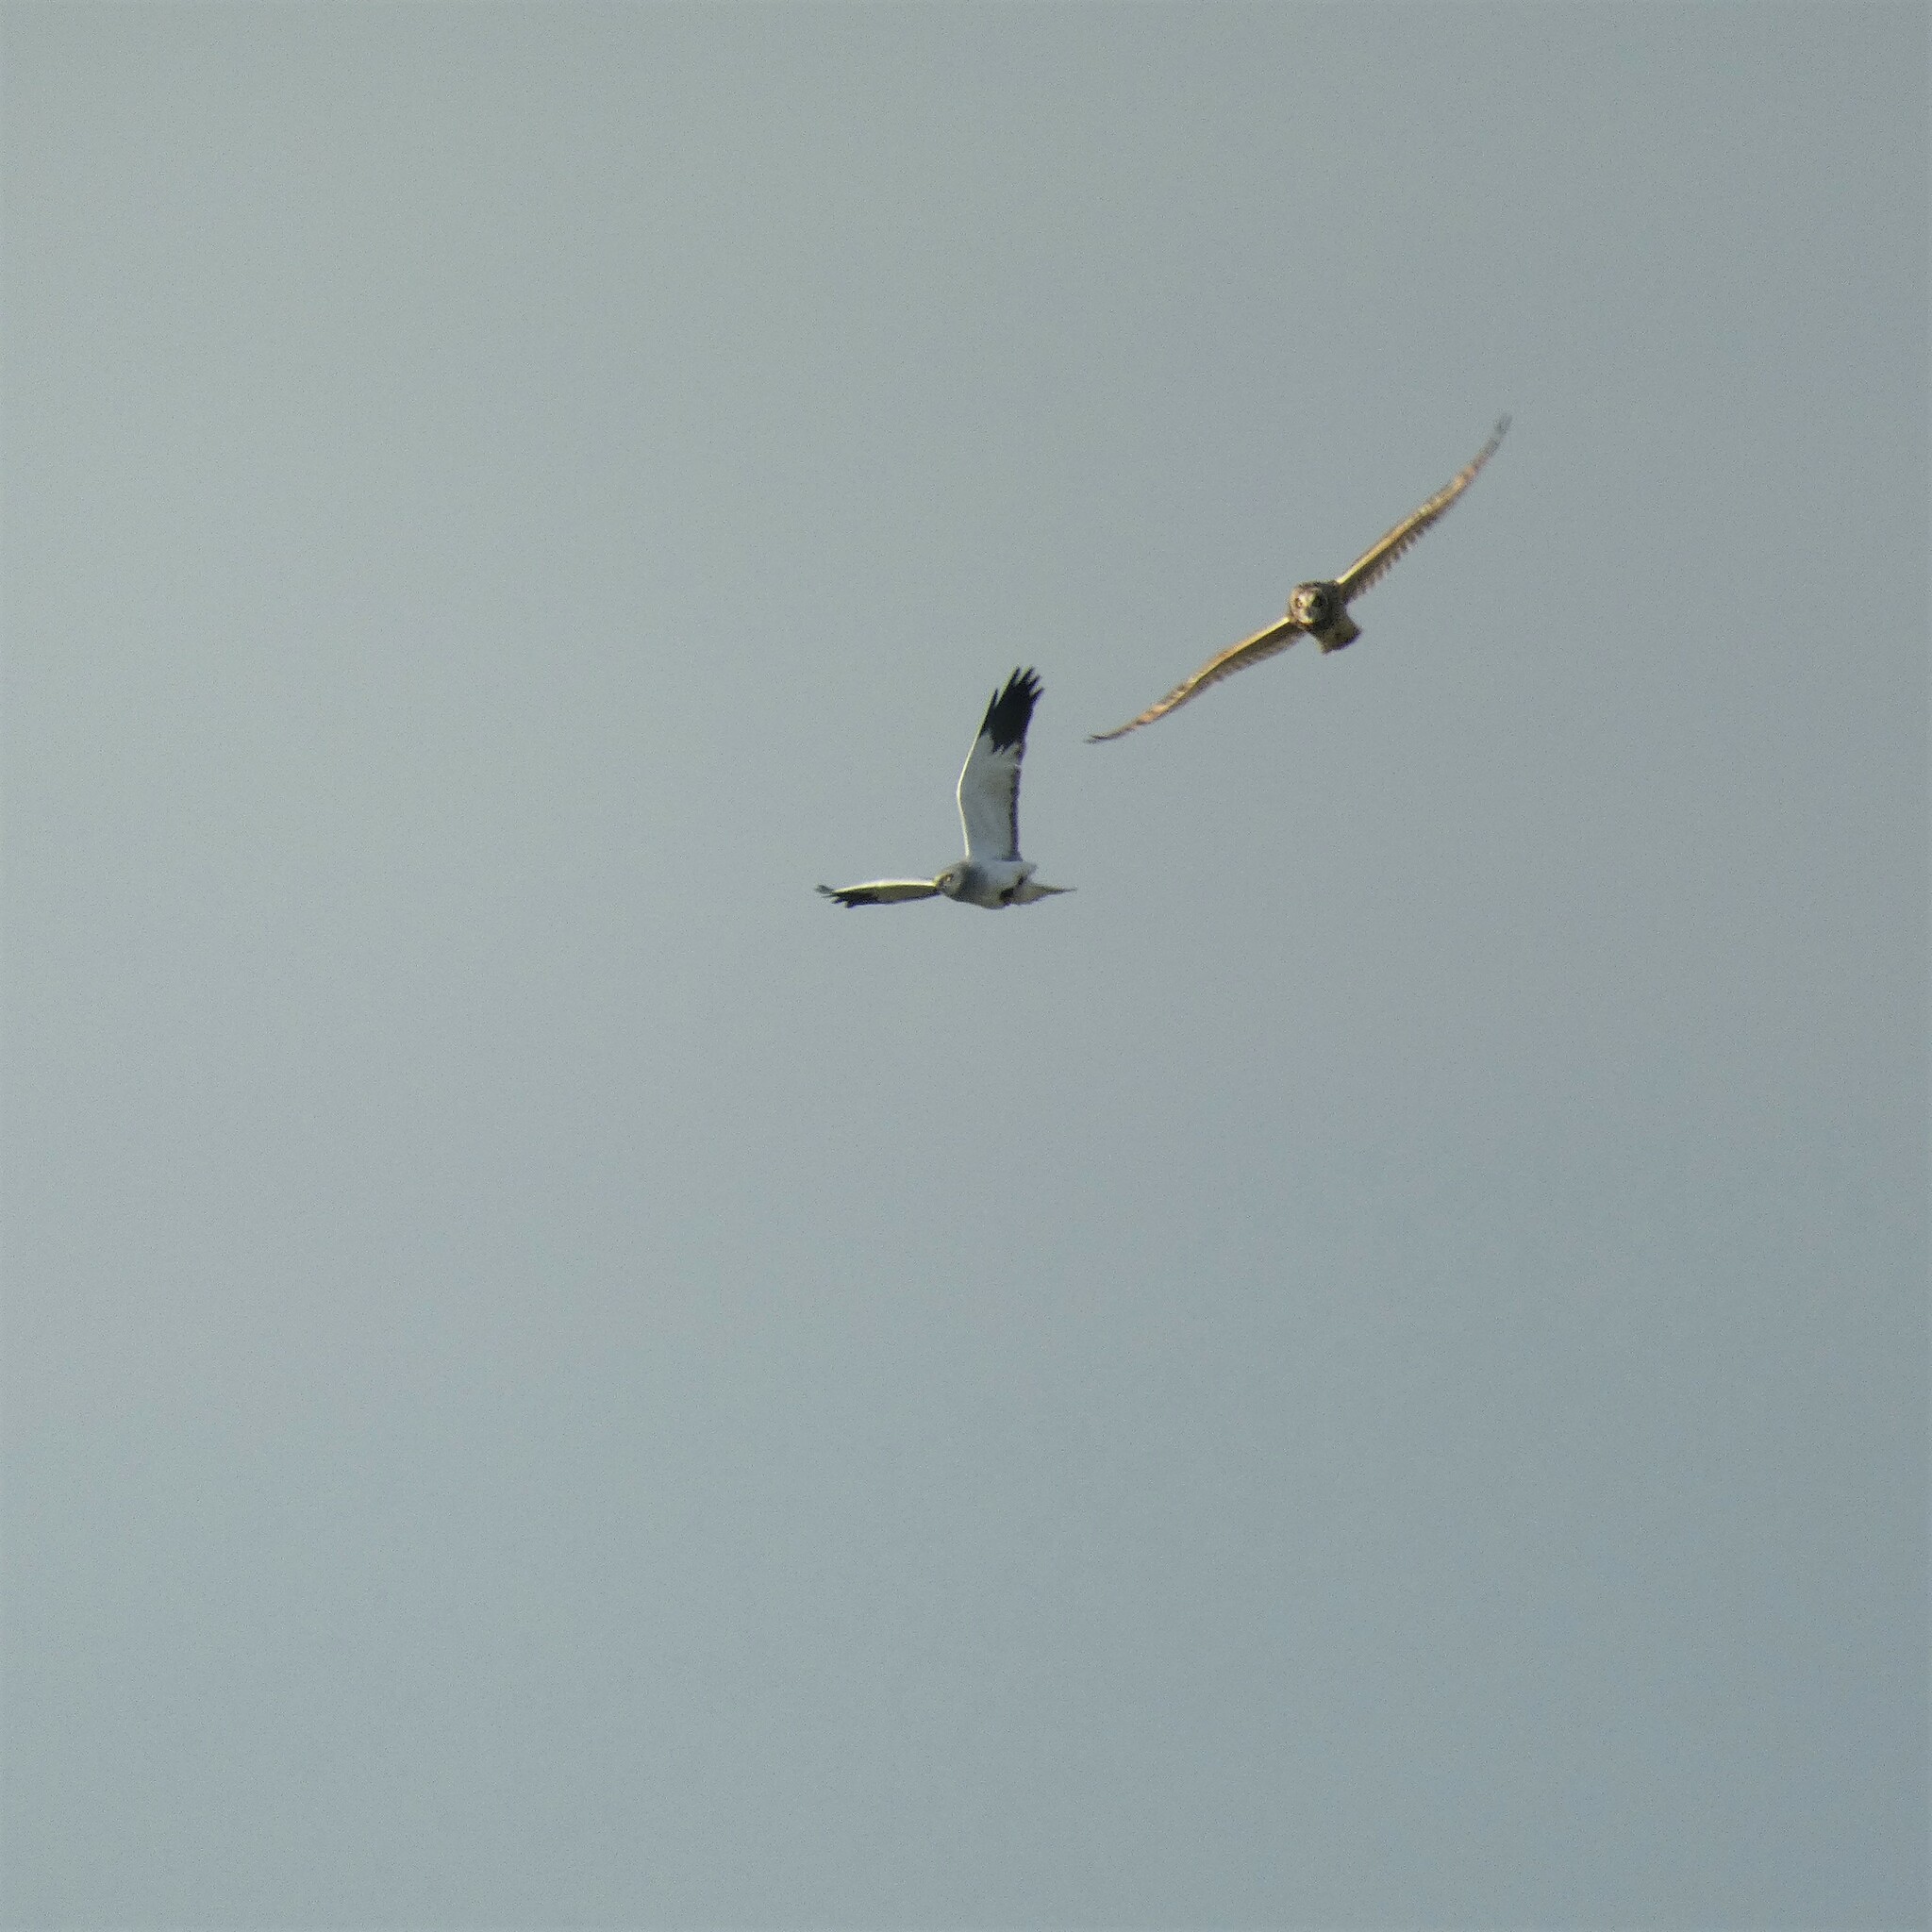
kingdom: Animalia
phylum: Chordata
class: Aves
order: Accipitriformes
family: Accipitridae
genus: Circus
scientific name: Circus cyaneus
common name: Hen harrier
